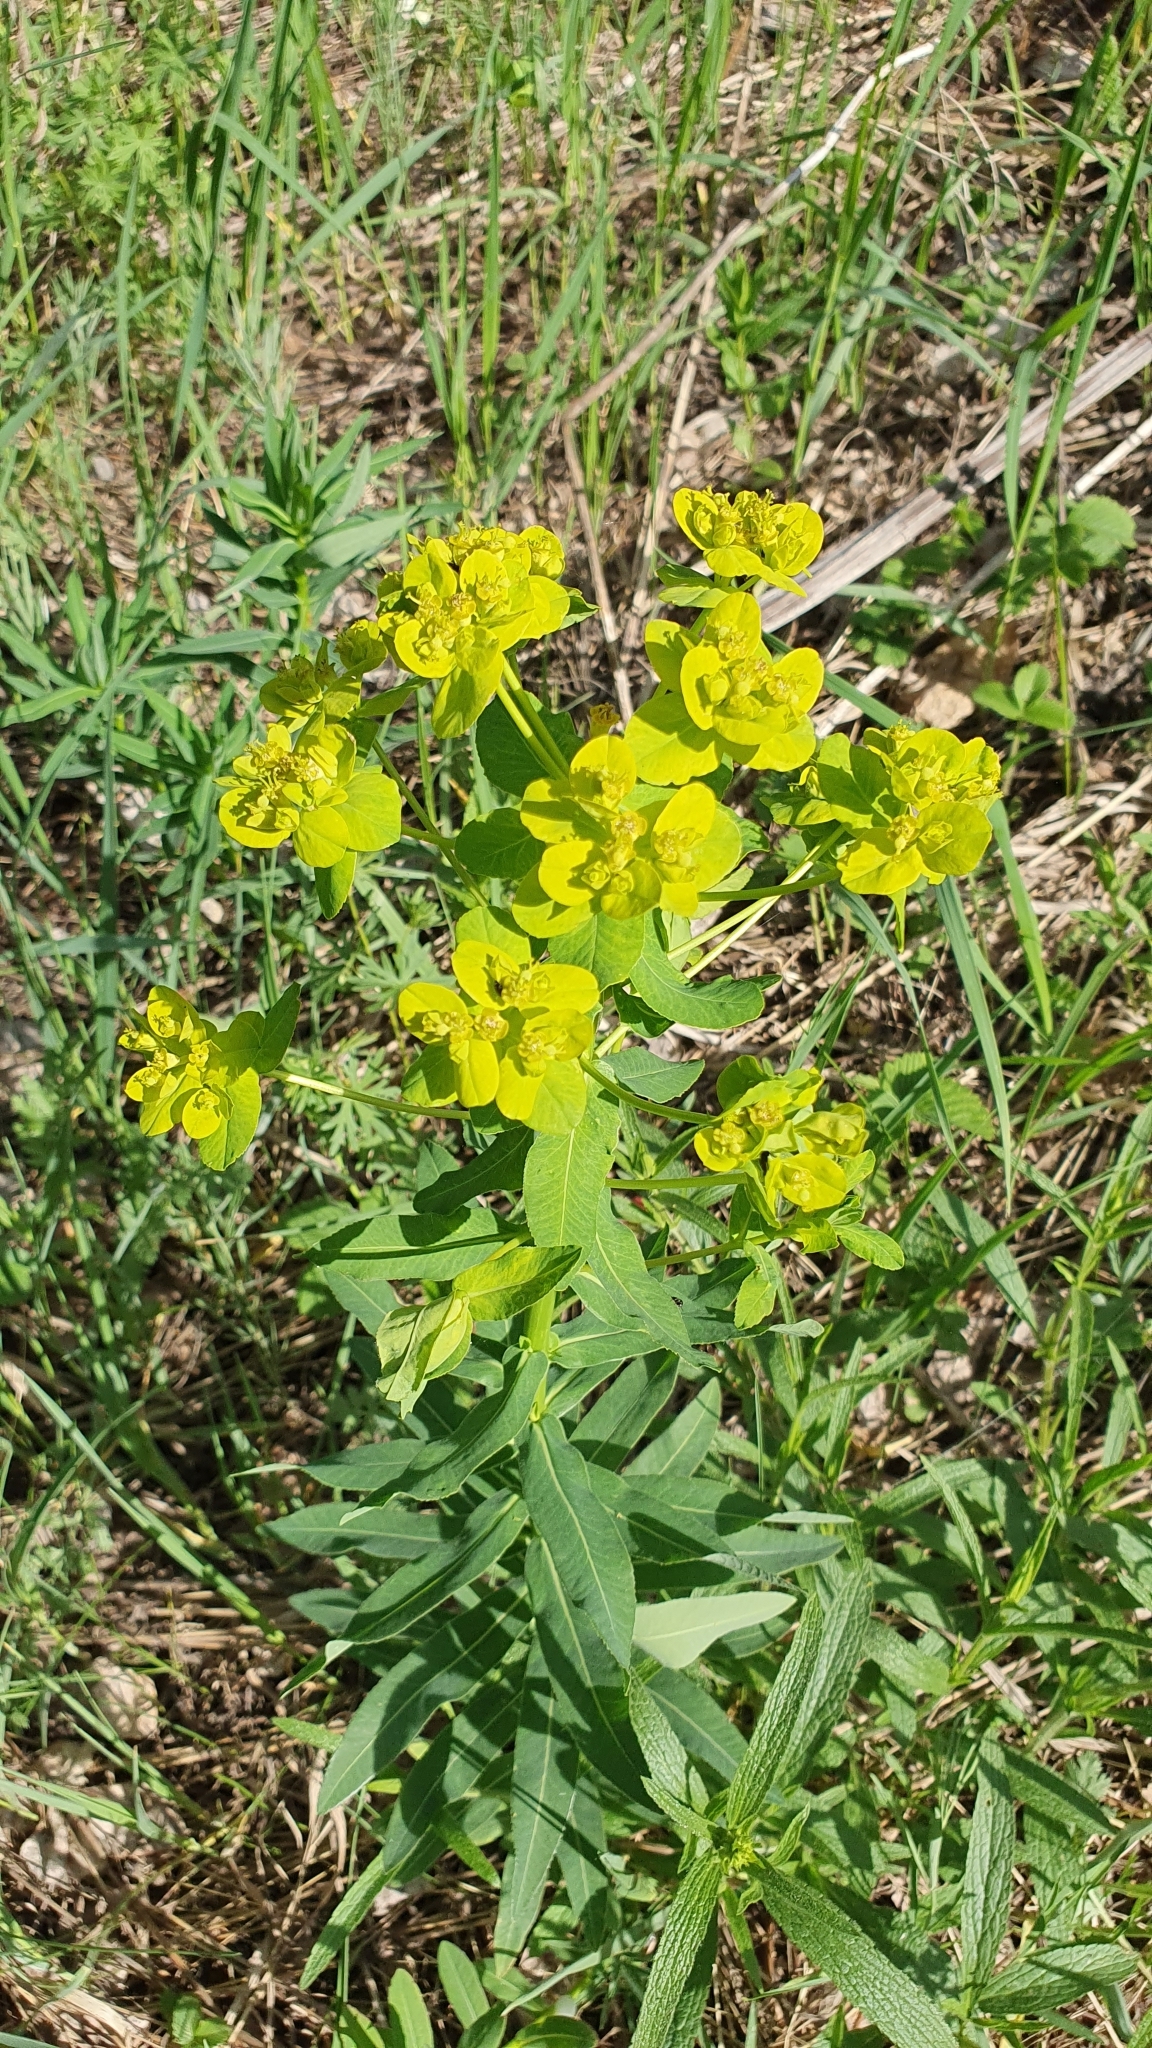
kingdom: Plantae
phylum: Tracheophyta
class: Magnoliopsida
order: Malpighiales
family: Euphorbiaceae
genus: Euphorbia
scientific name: Euphorbia semivillosa
